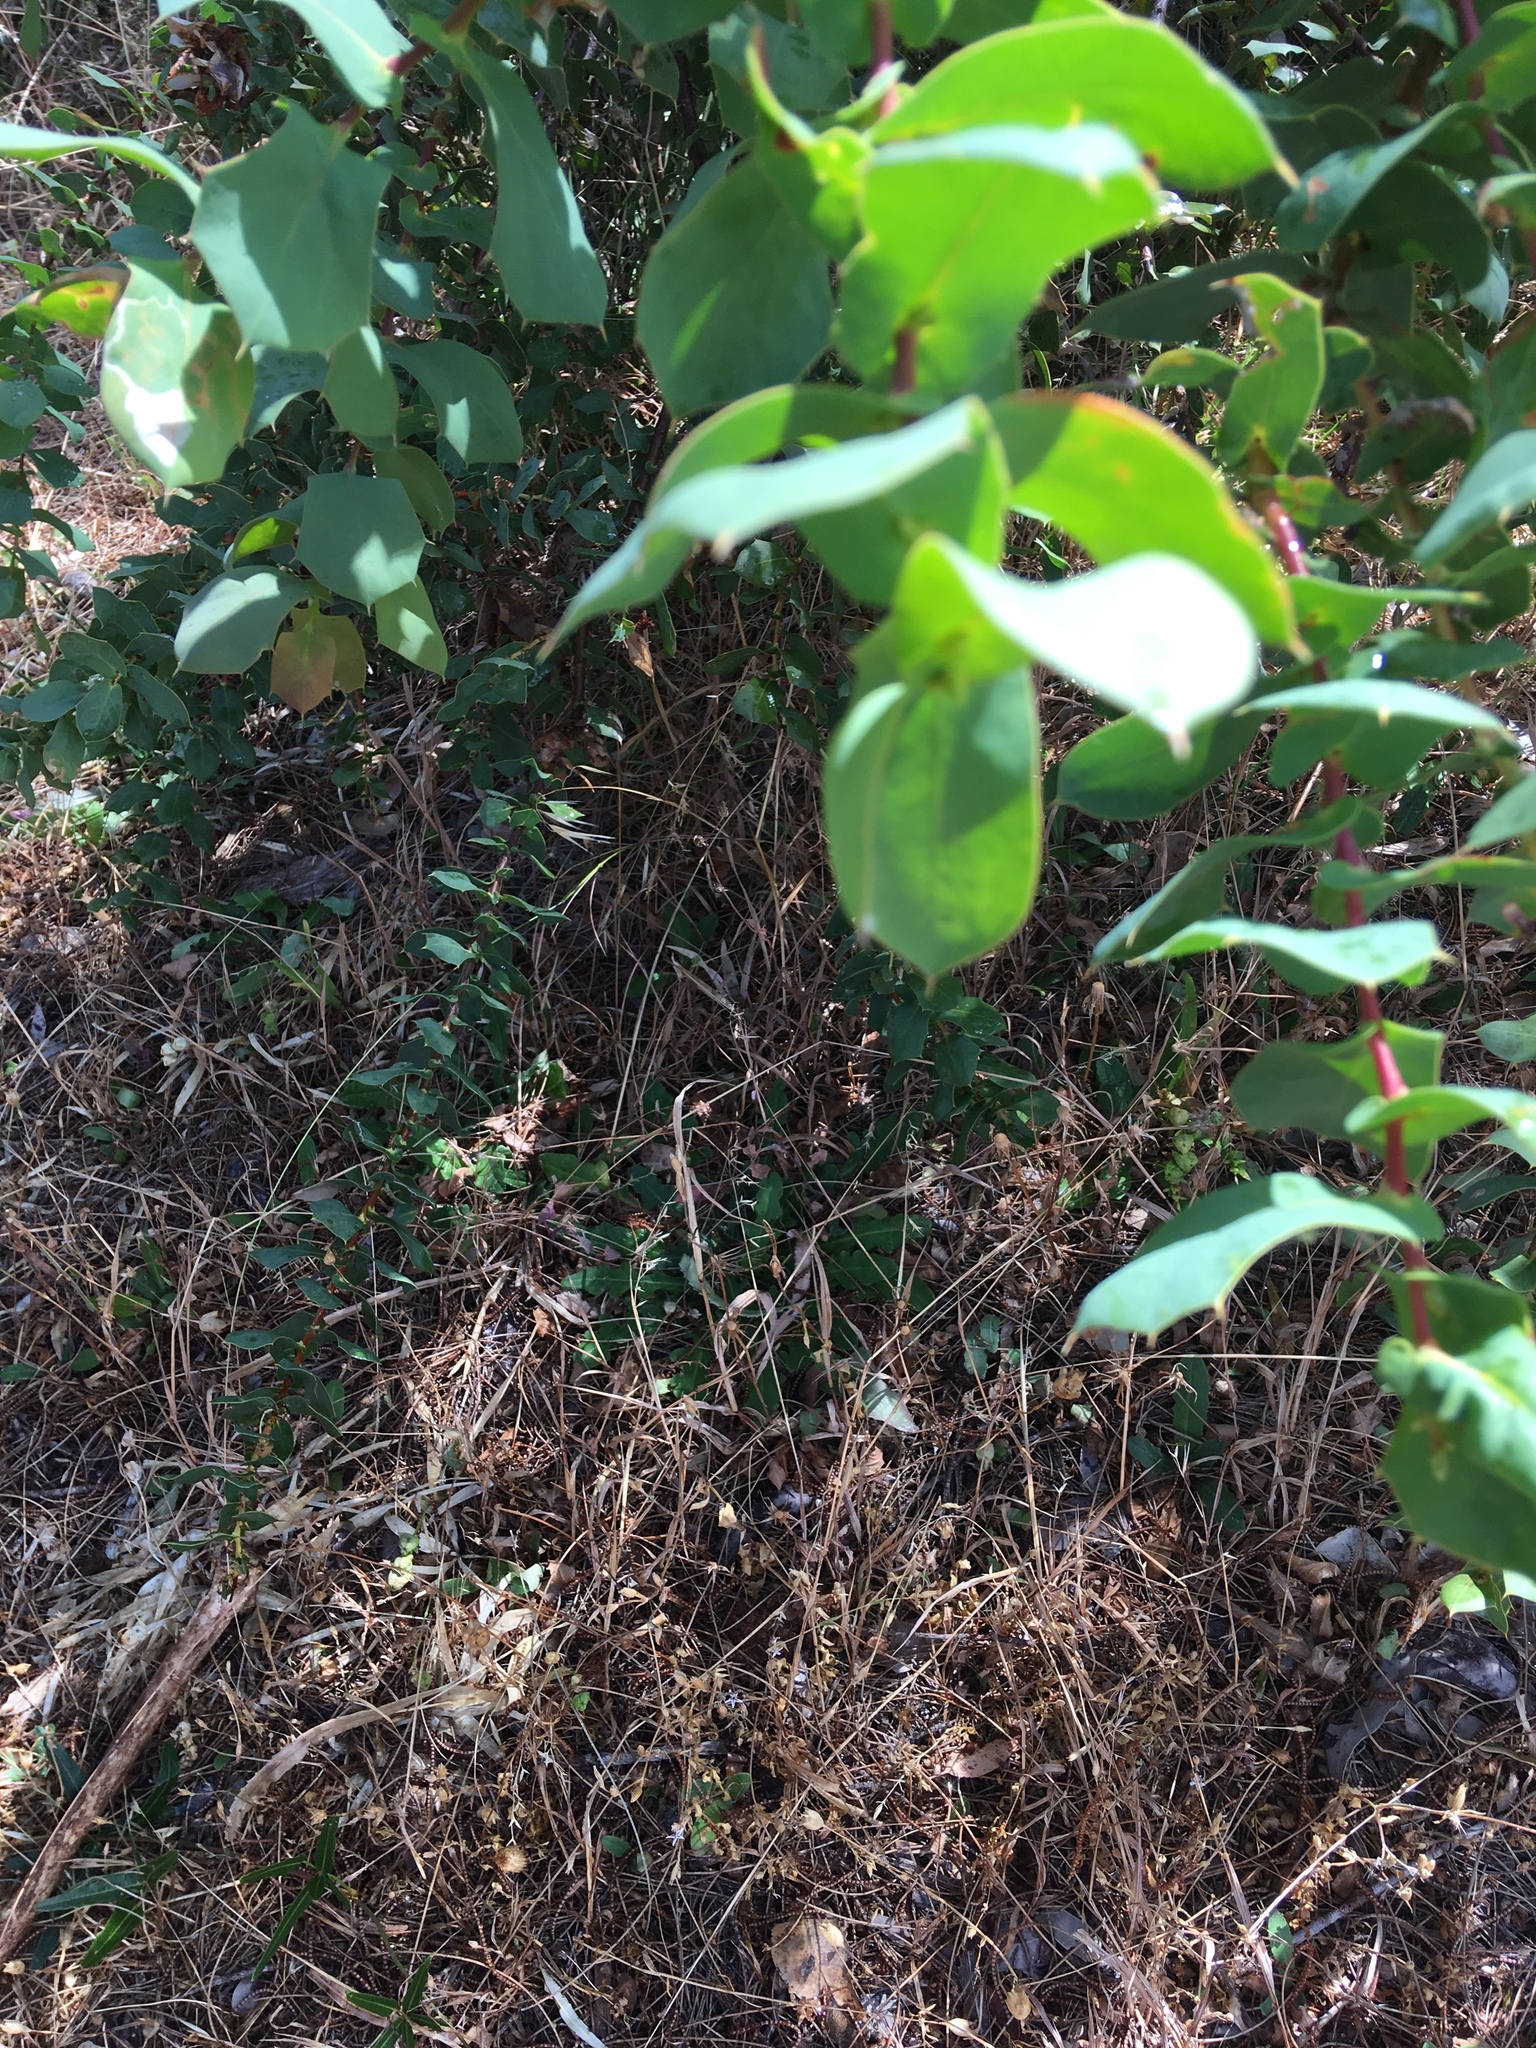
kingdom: Plantae
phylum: Tracheophyta
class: Magnoliopsida
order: Proteales
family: Proteaceae
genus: Hakea
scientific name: Hakea prostrata
